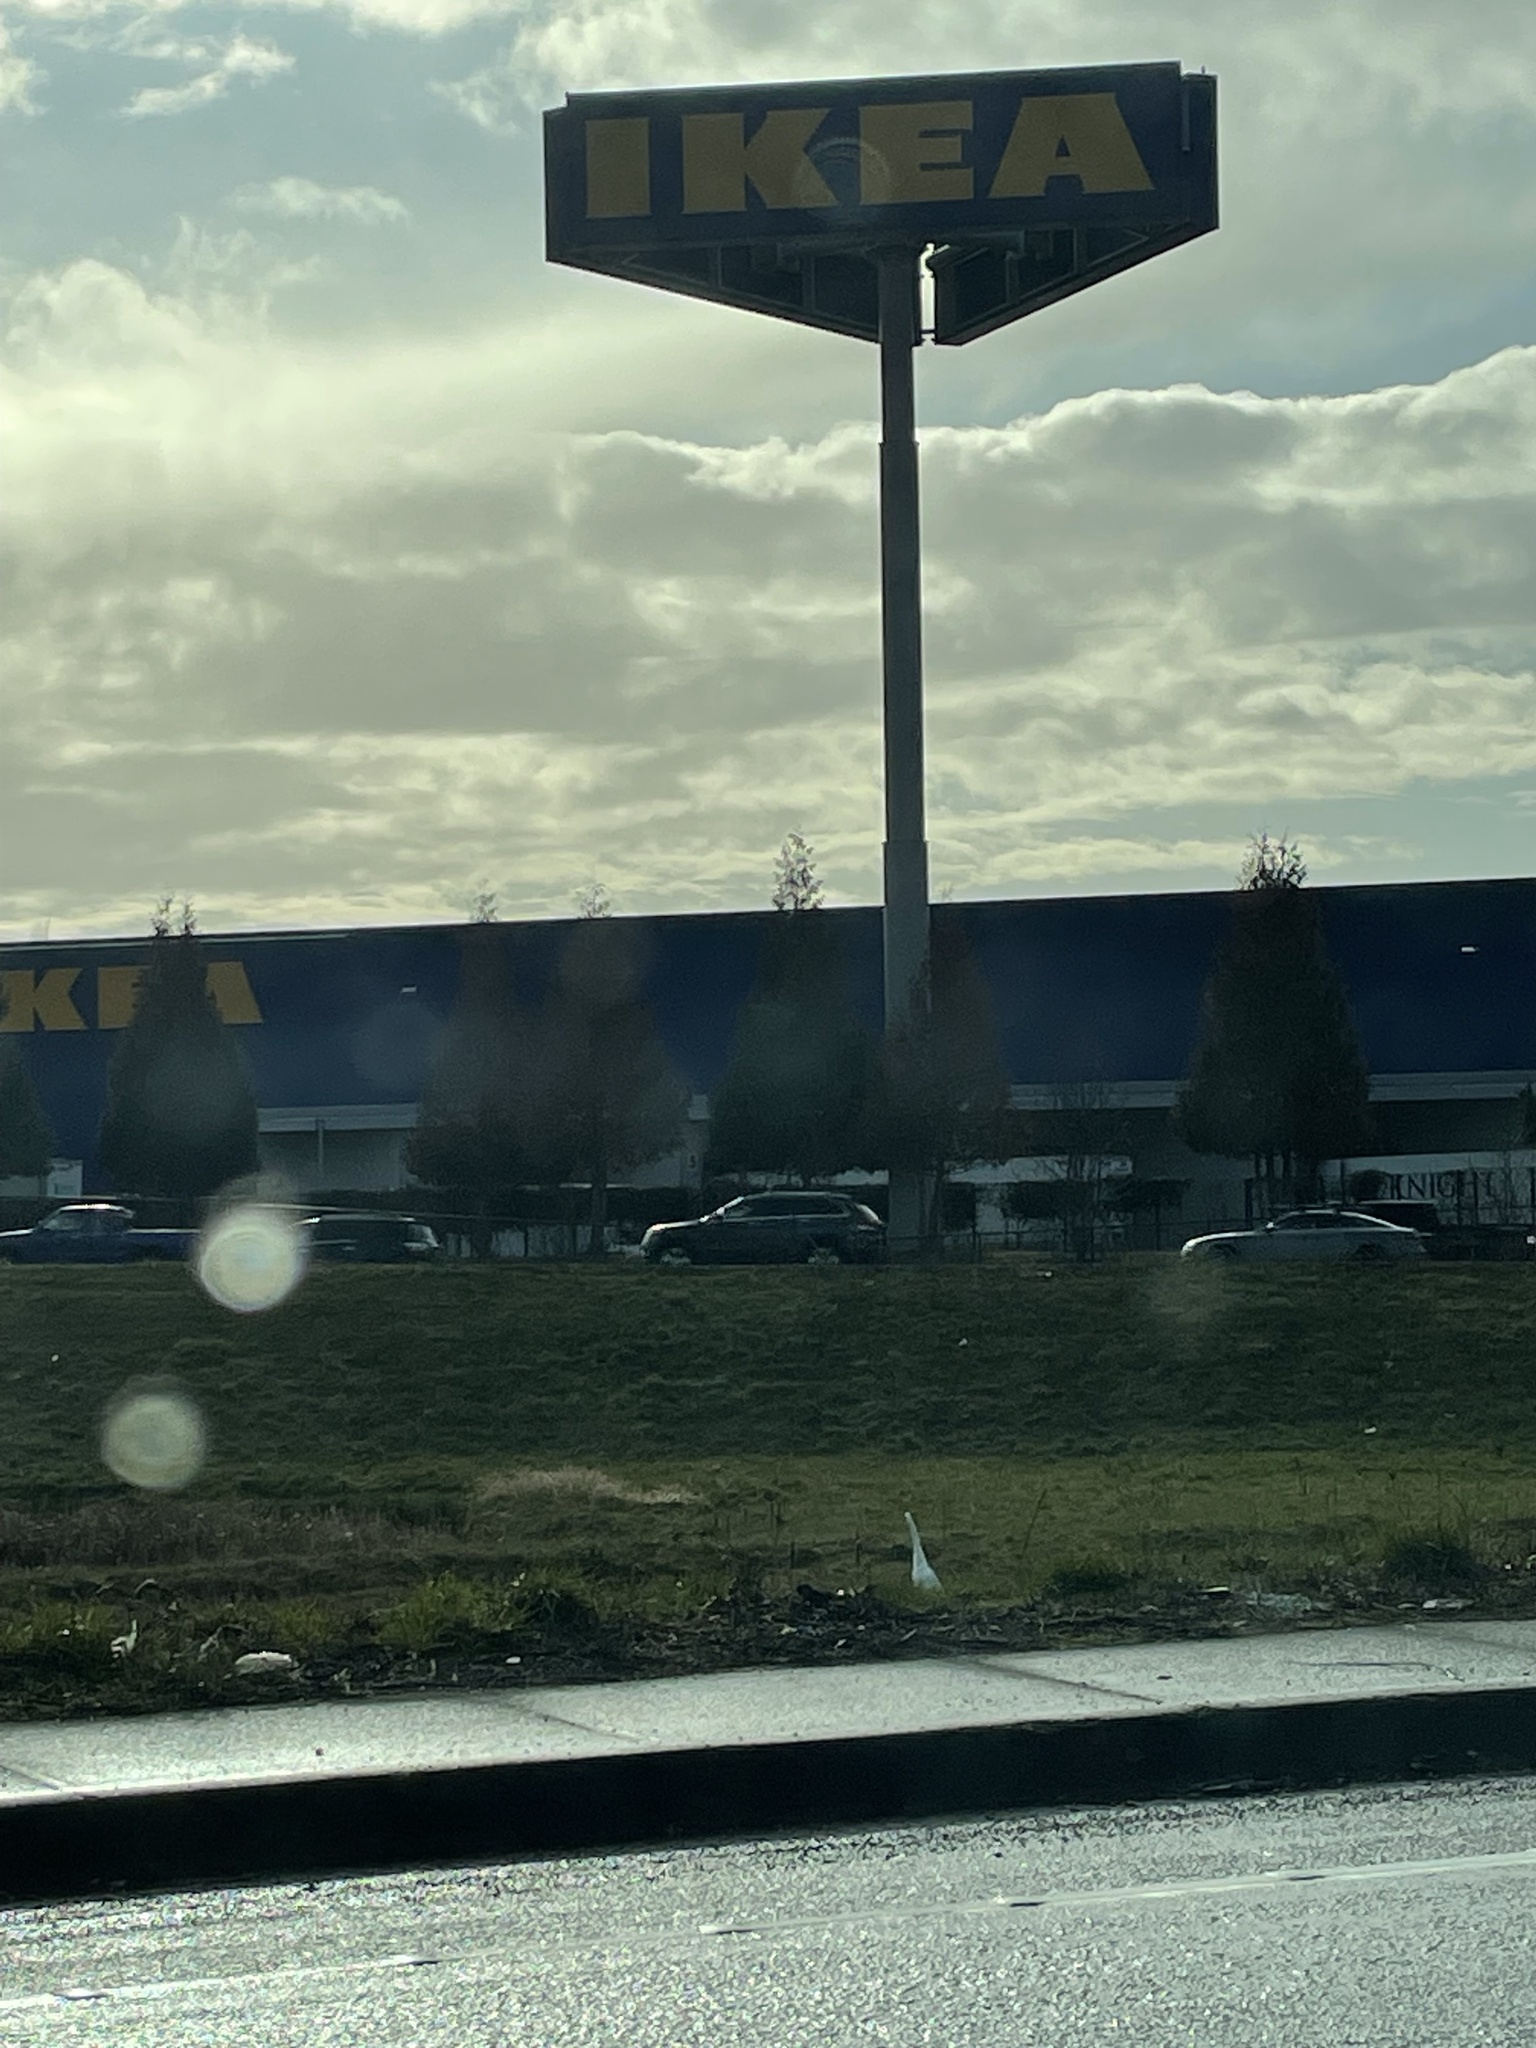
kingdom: Animalia
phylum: Chordata
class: Aves
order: Pelecaniformes
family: Ardeidae
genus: Ardea
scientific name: Ardea alba
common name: Great egret
